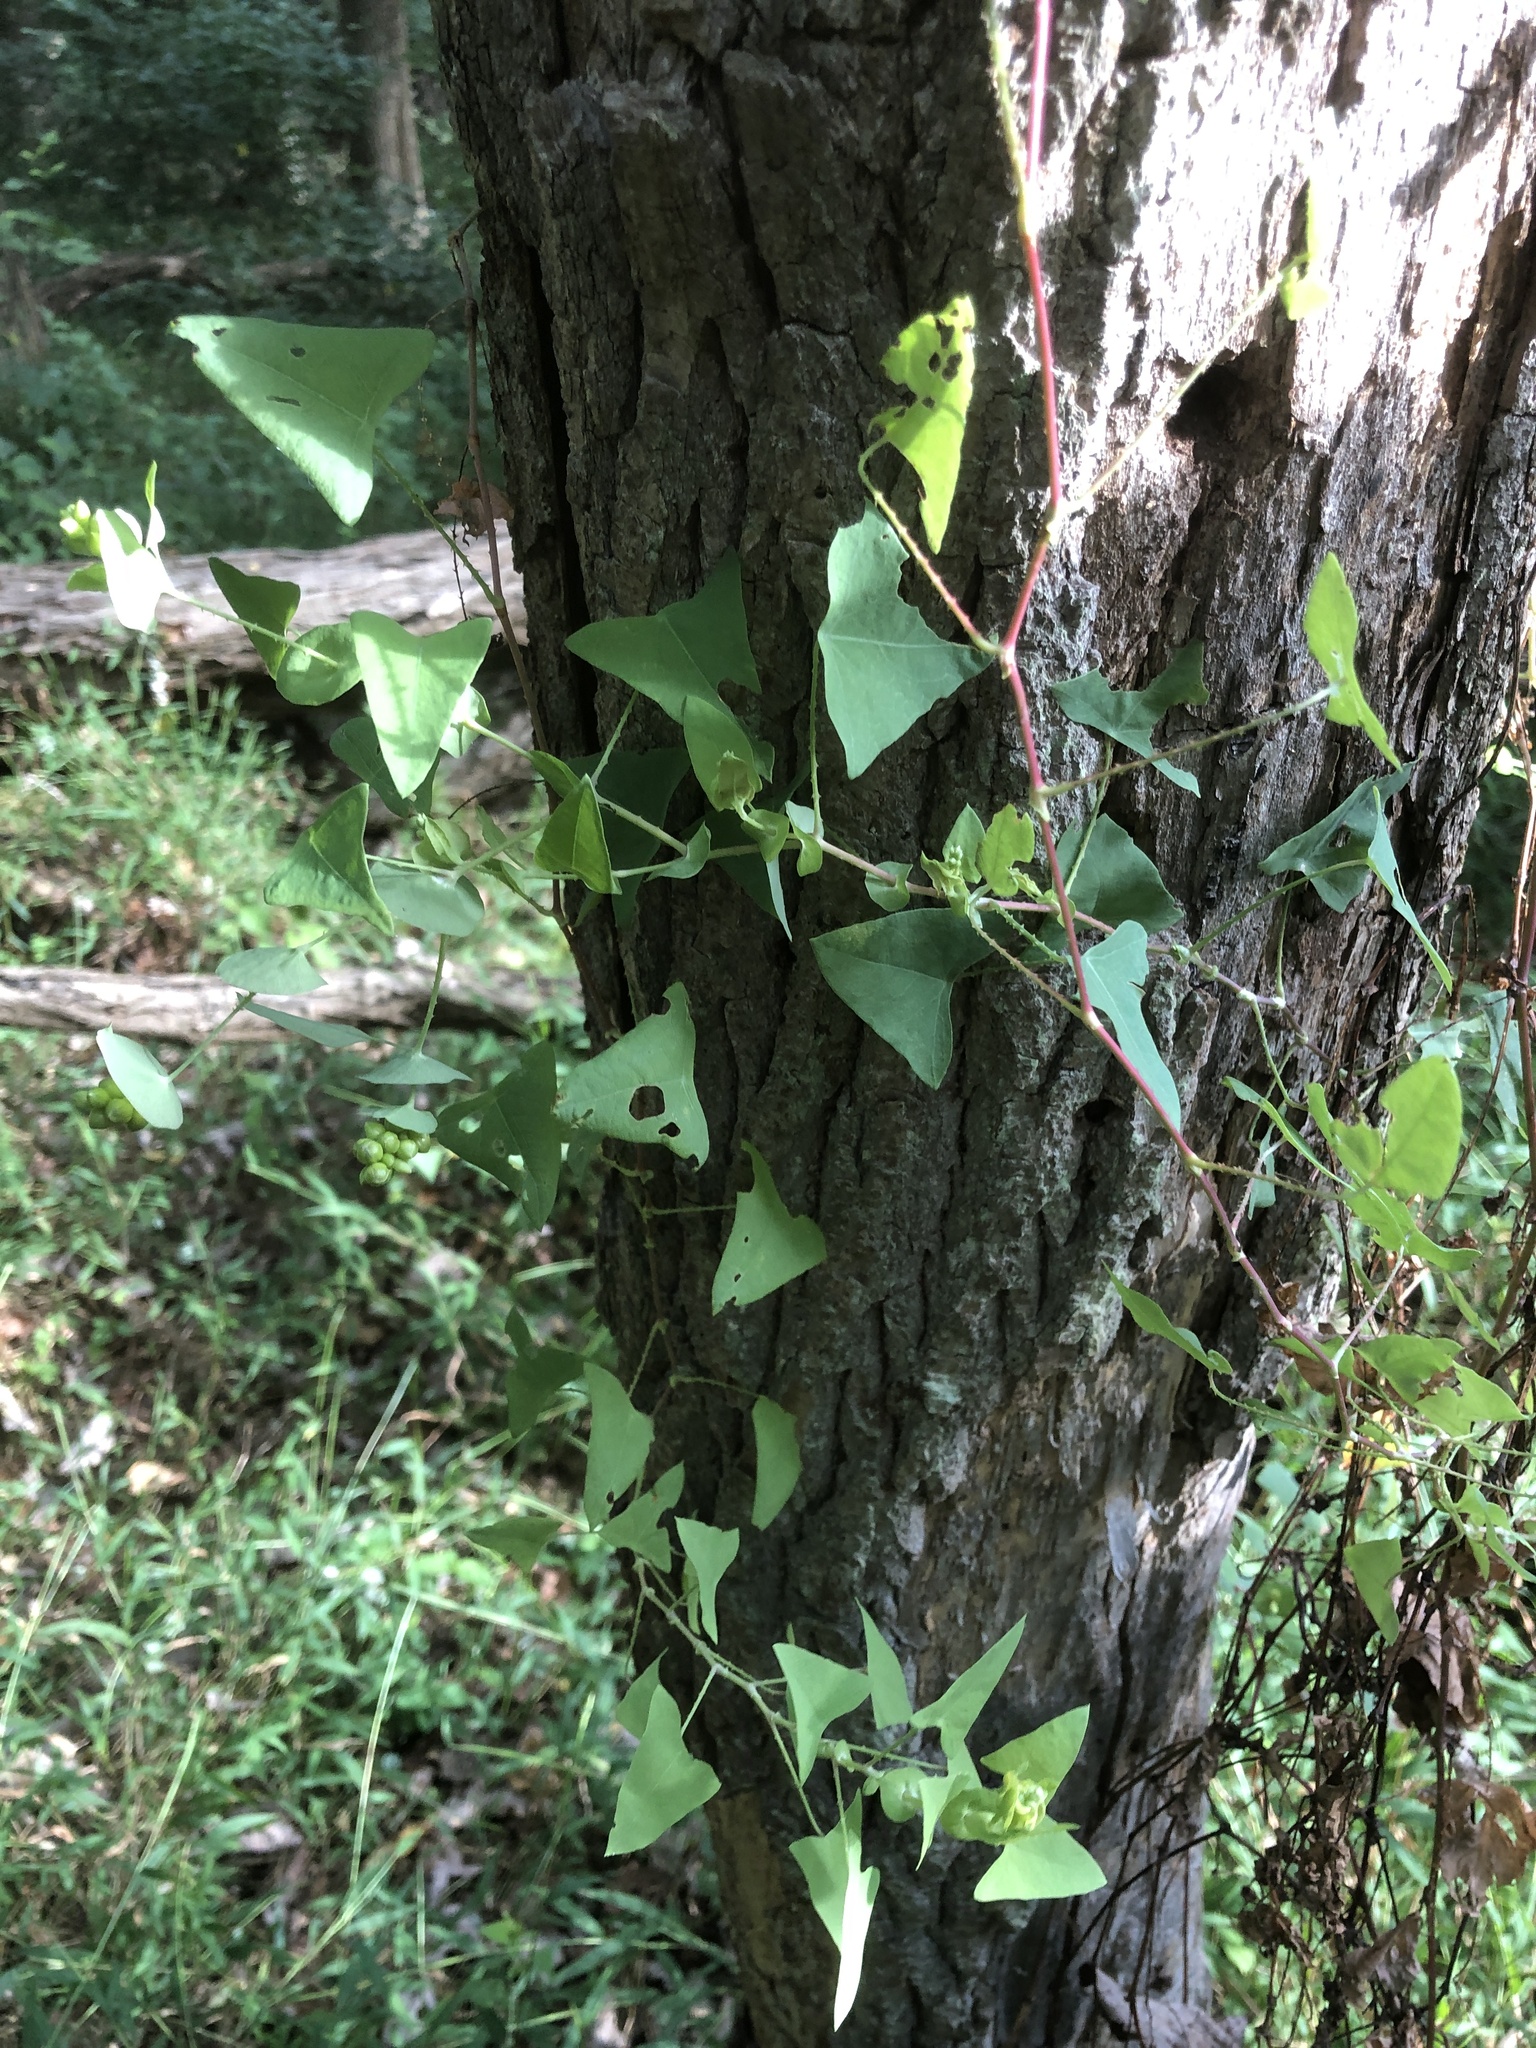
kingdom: Plantae
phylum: Tracheophyta
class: Magnoliopsida
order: Caryophyllales
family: Polygonaceae
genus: Persicaria
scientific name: Persicaria perfoliata
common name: Asiatic tearthumb
